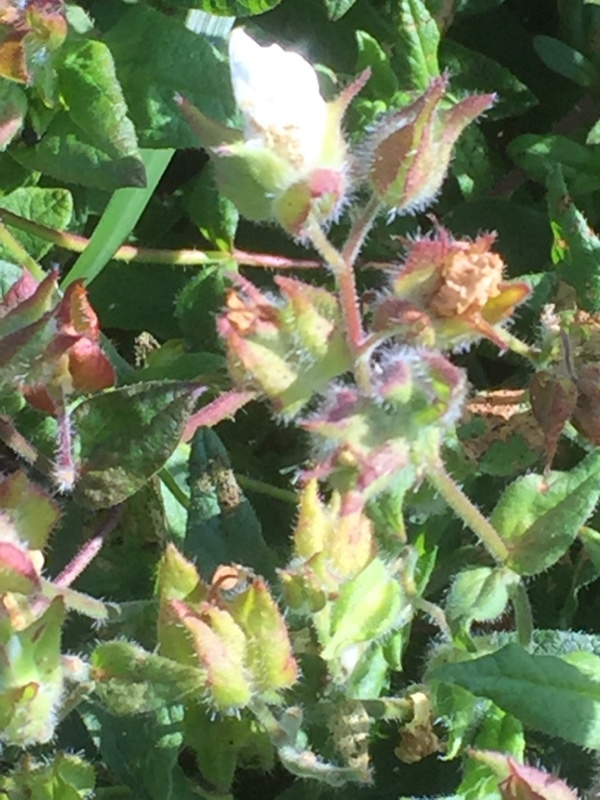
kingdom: Plantae
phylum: Tracheophyta
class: Magnoliopsida
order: Malvales
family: Cistaceae
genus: Cistus
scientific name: Cistus inflatus
